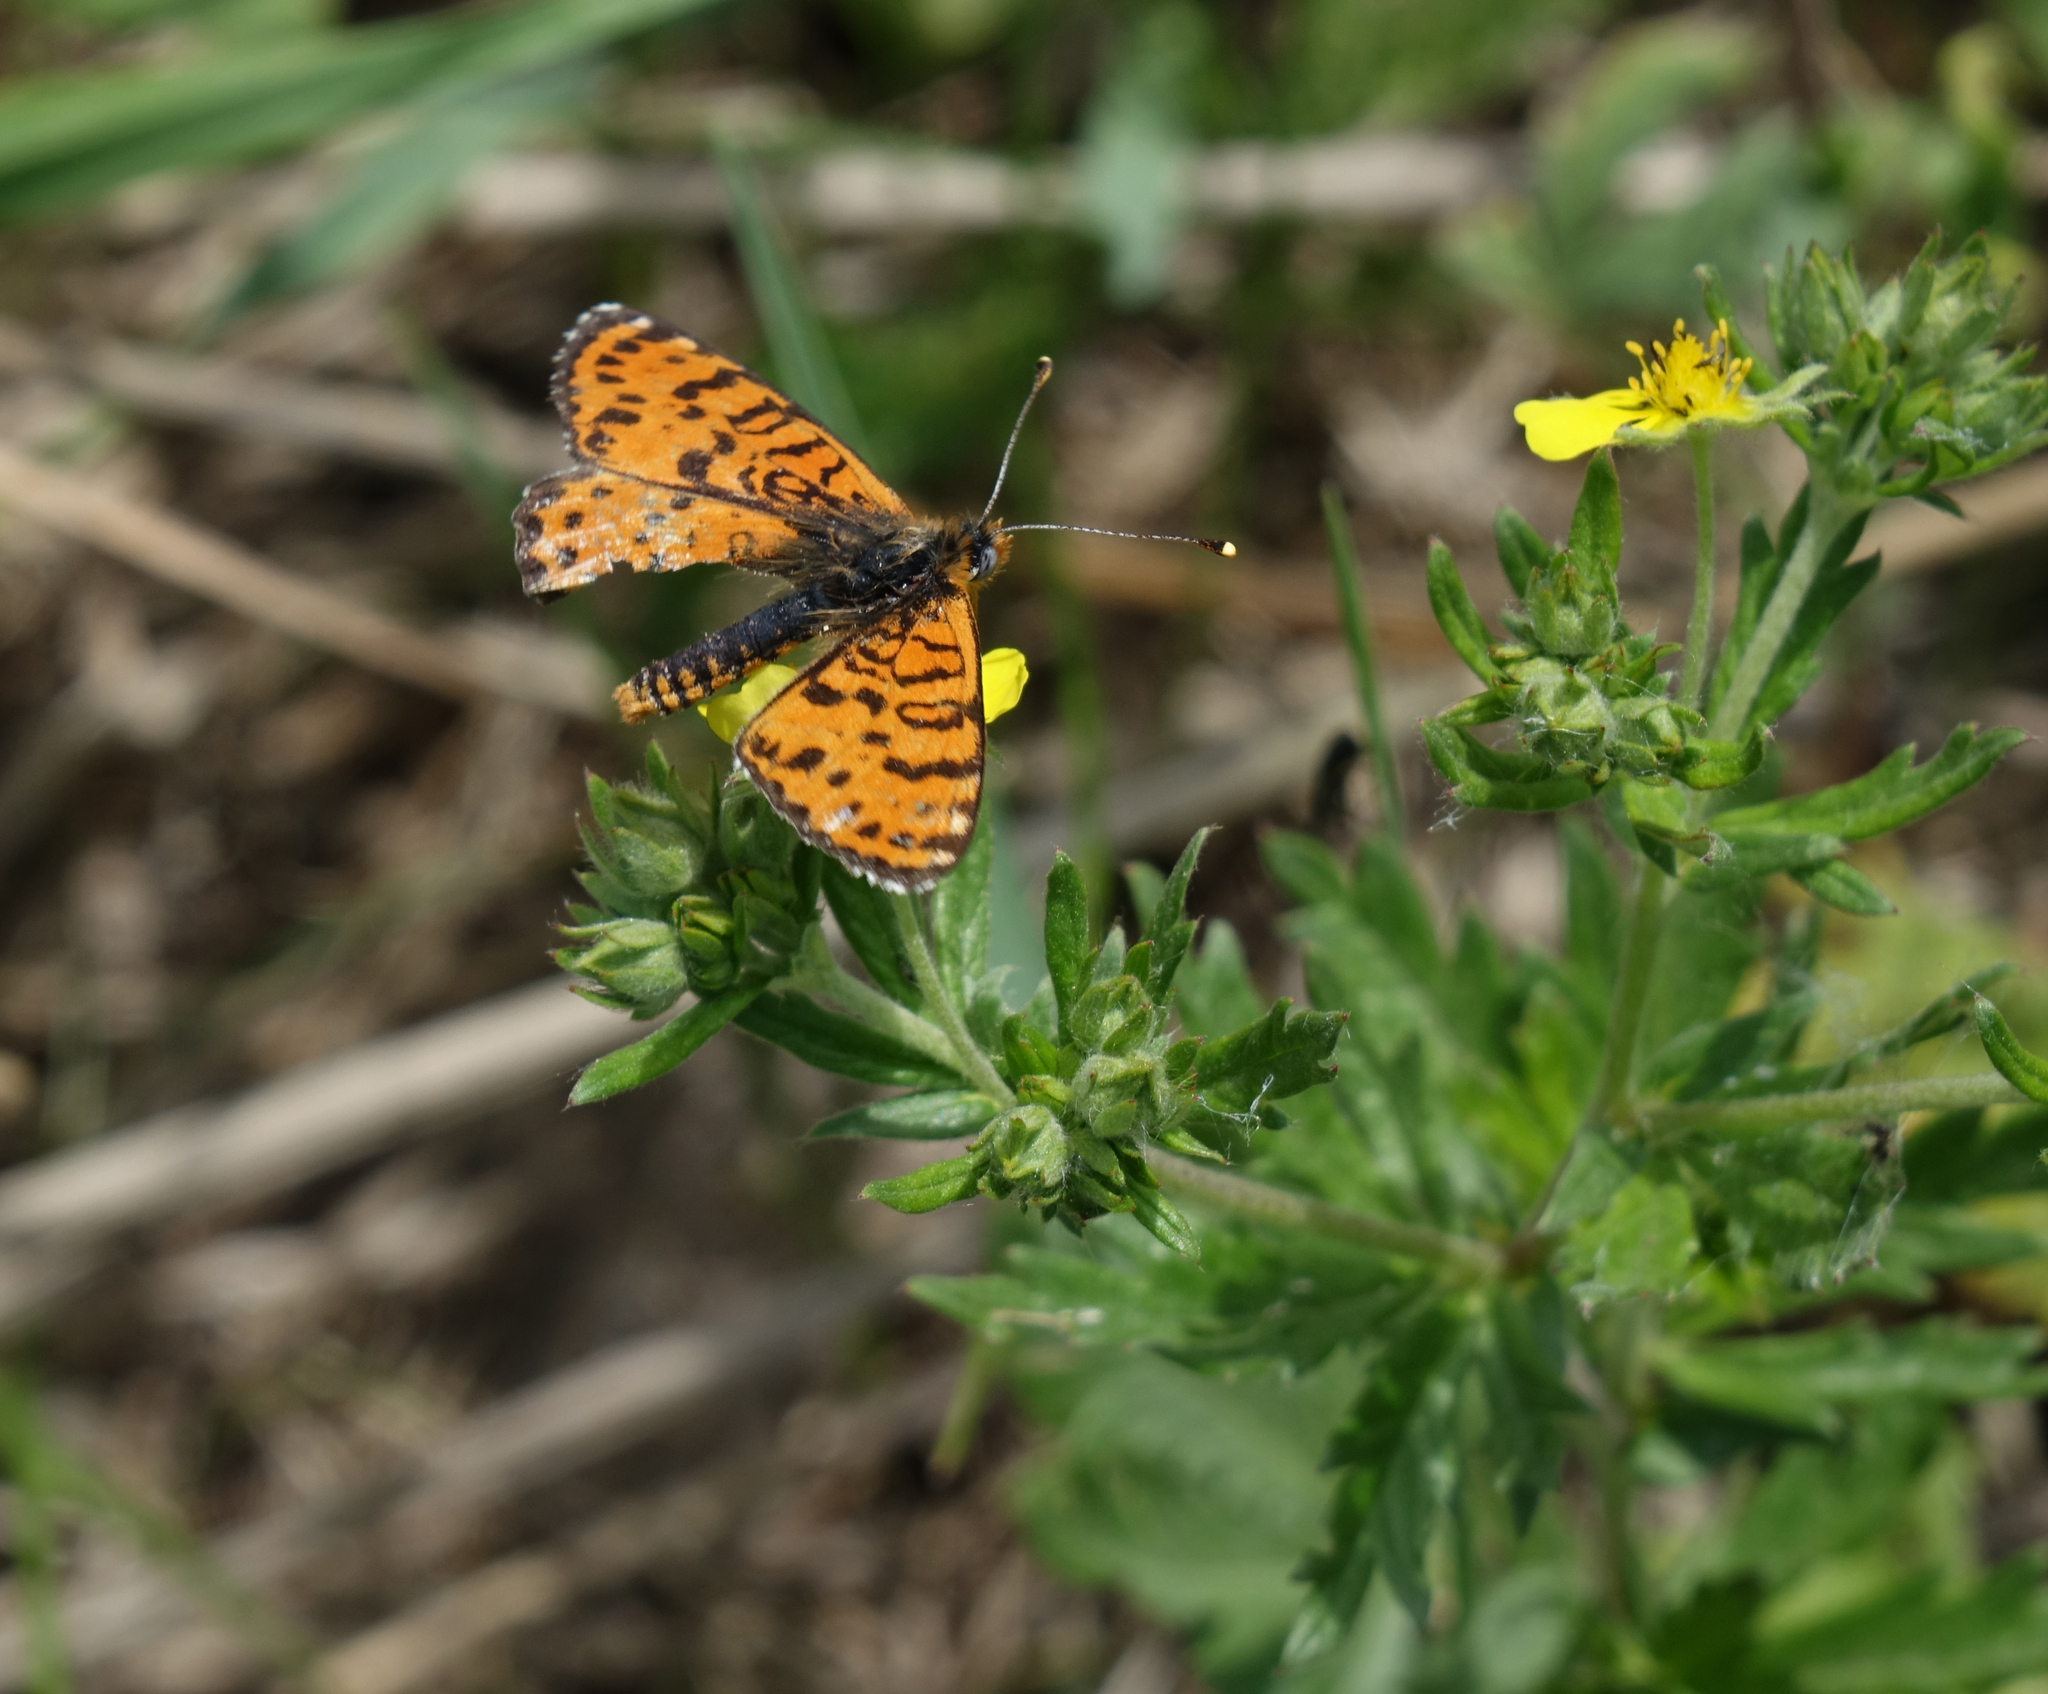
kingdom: Animalia
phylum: Arthropoda
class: Insecta
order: Lepidoptera
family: Nymphalidae
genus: Melitaea
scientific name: Melitaea didyma
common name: Spotted fritillary
